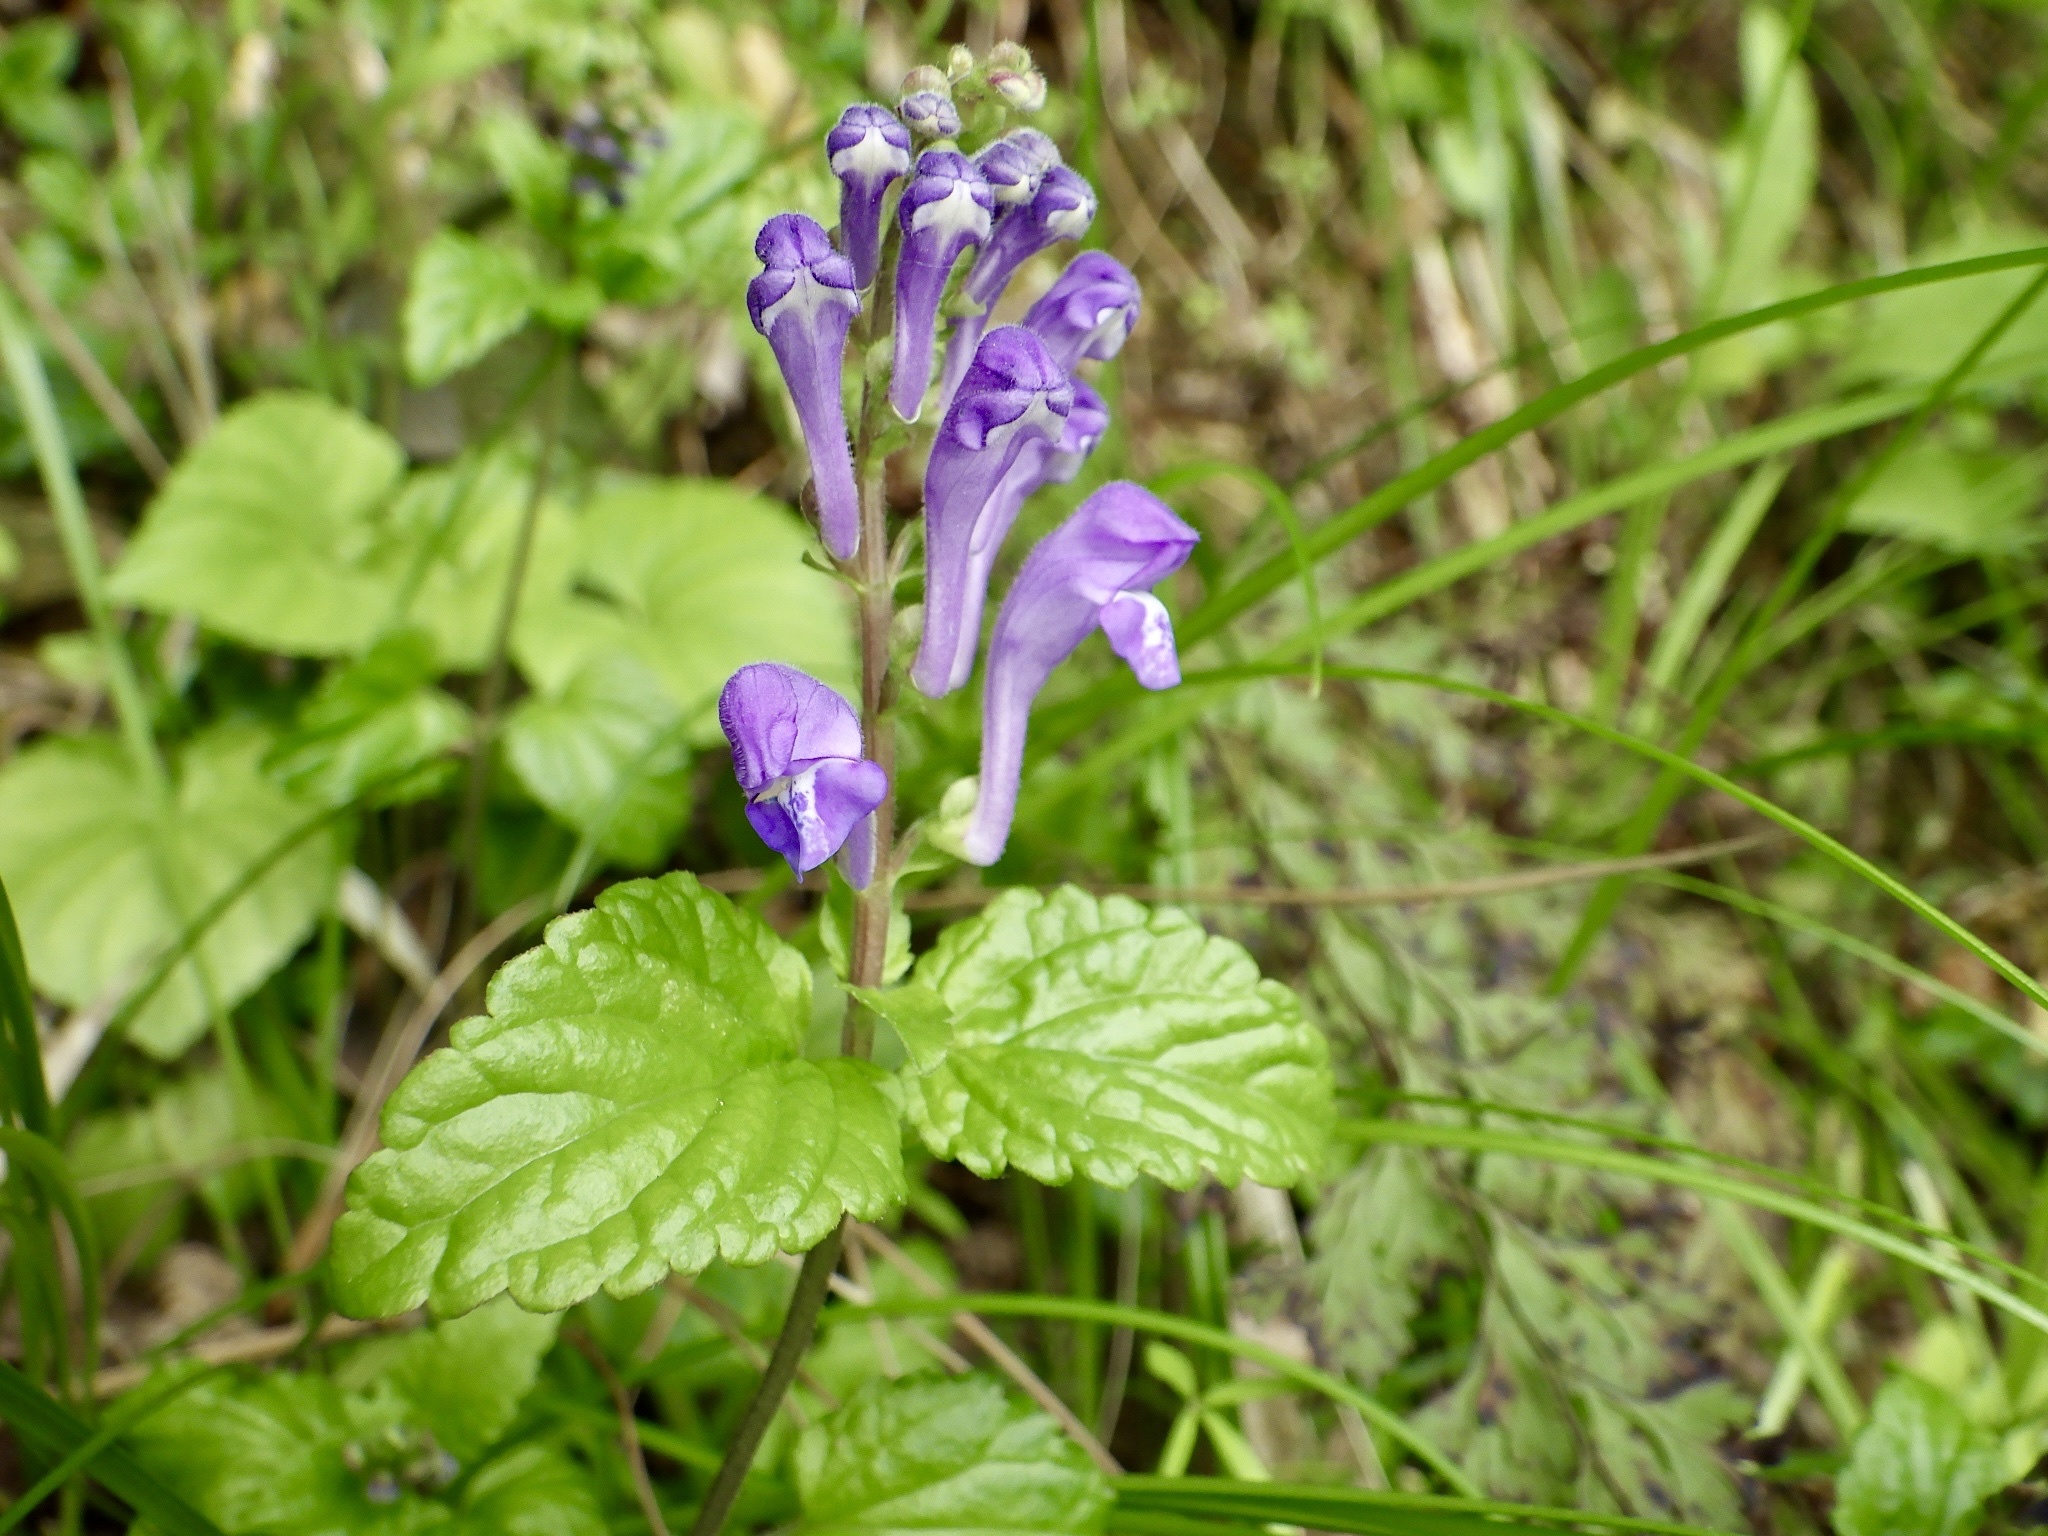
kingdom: Plantae
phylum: Tracheophyta
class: Magnoliopsida
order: Lamiales
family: Lamiaceae
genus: Scutellaria
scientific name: Scutellaria indica
